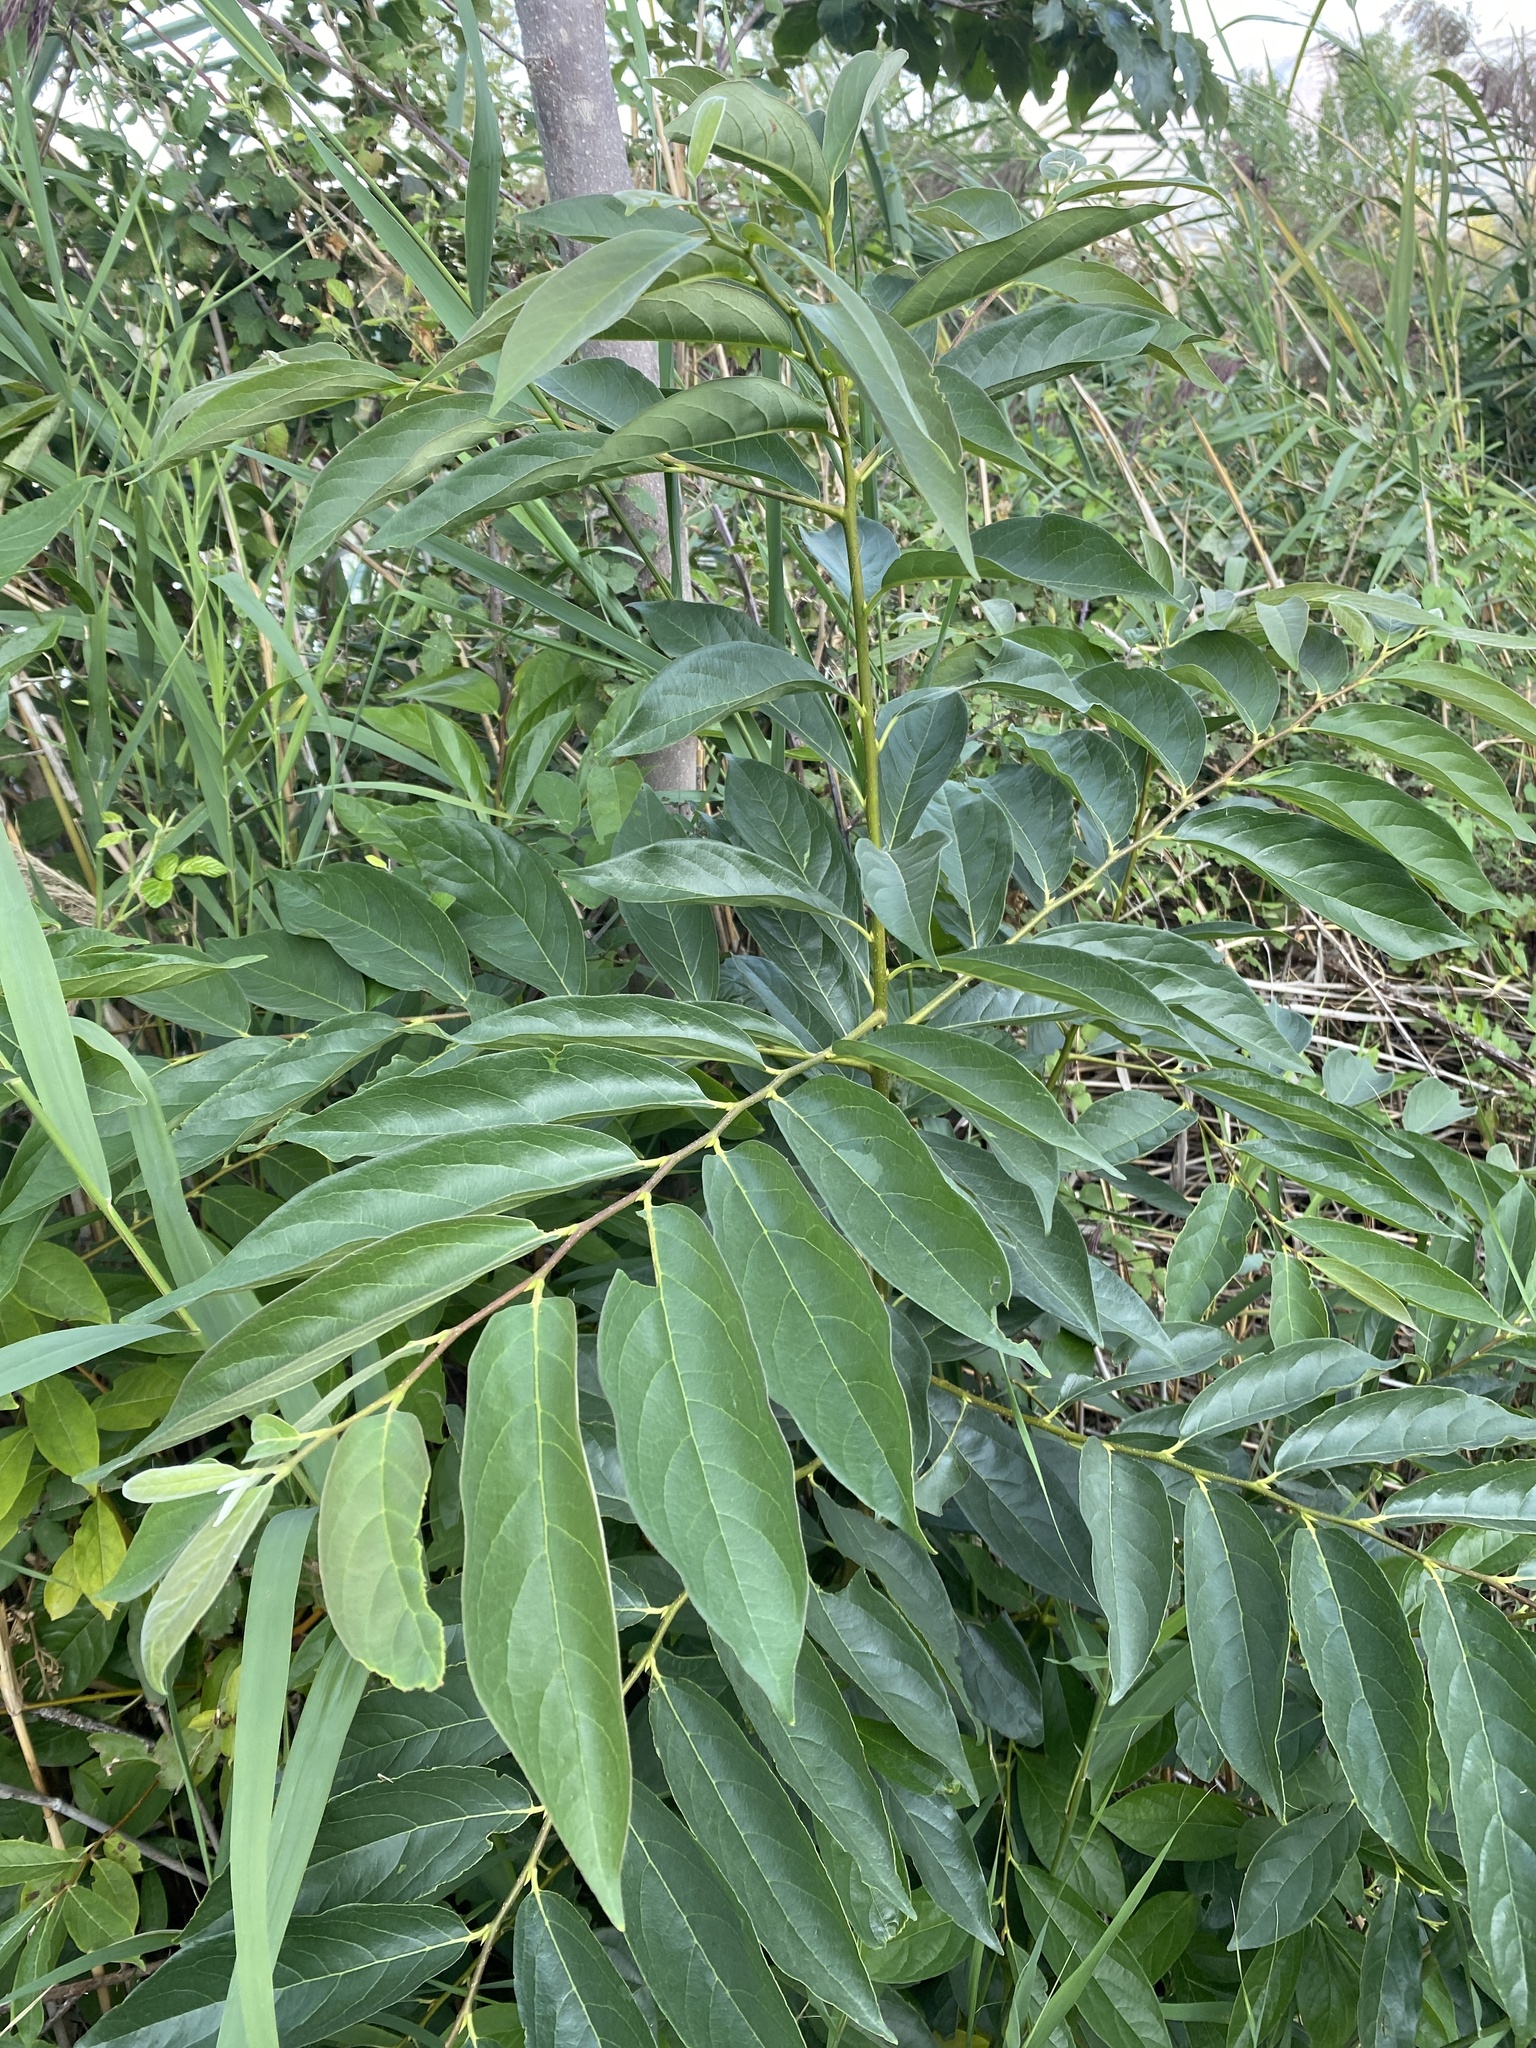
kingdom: Plantae
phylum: Tracheophyta
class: Magnoliopsida
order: Ericales
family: Ebenaceae
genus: Diospyros
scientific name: Diospyros lotus
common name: Date-plum
